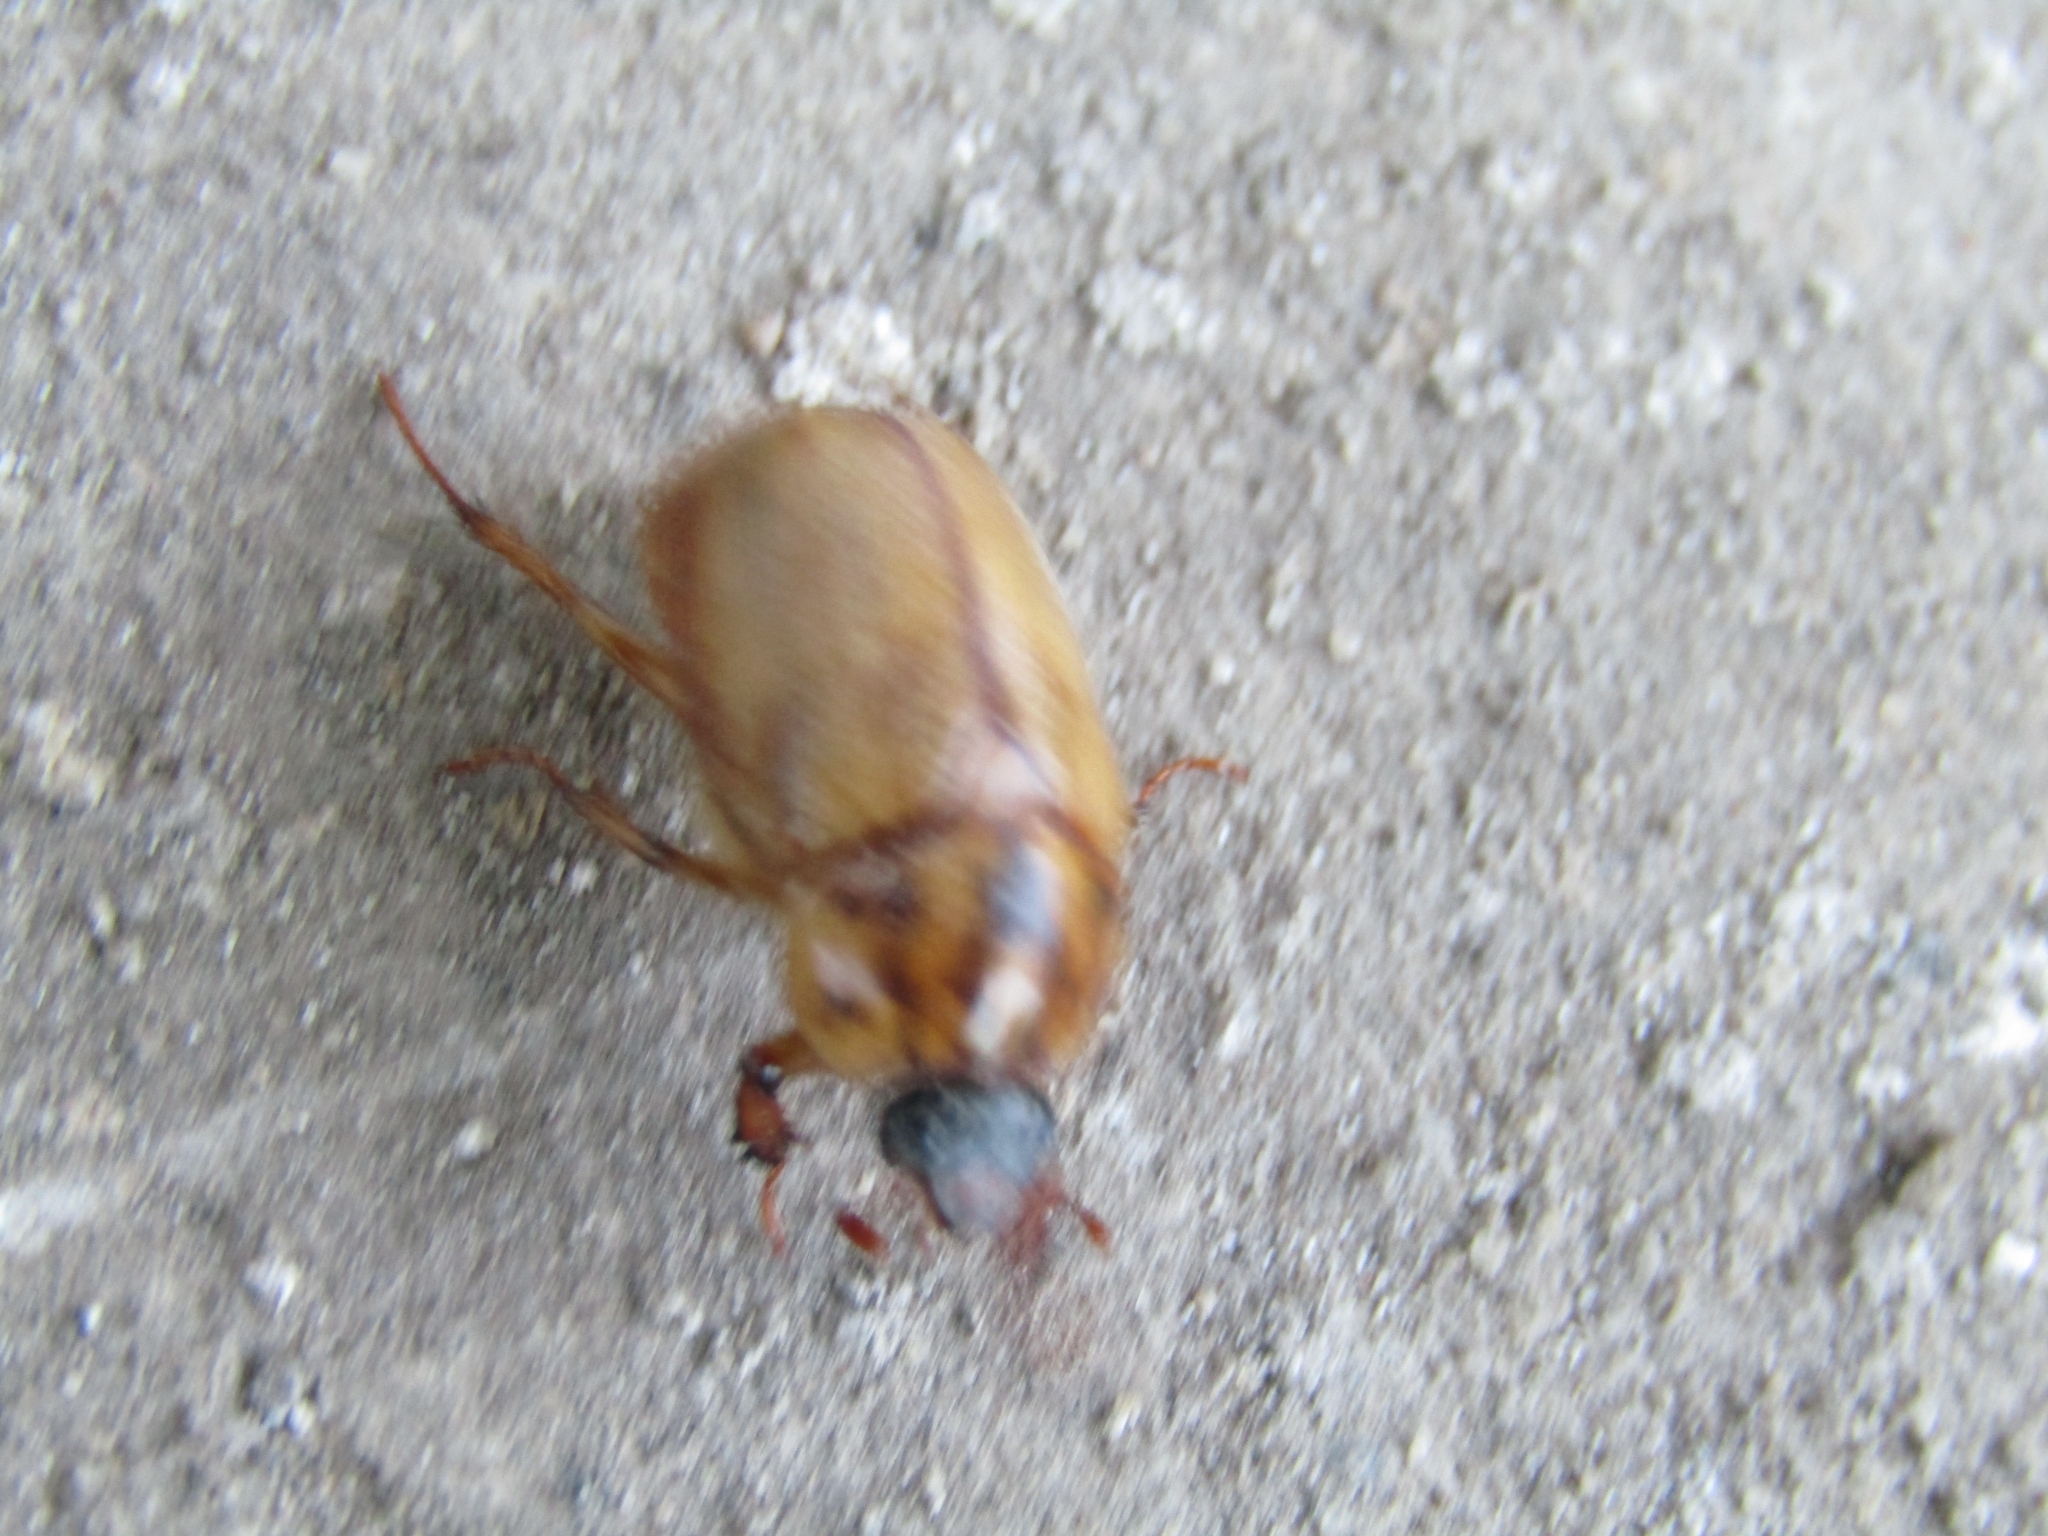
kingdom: Animalia
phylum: Arthropoda
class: Insecta
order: Coleoptera
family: Scarabaeidae
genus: Cyclocephala
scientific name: Cyclocephala signaticollis
